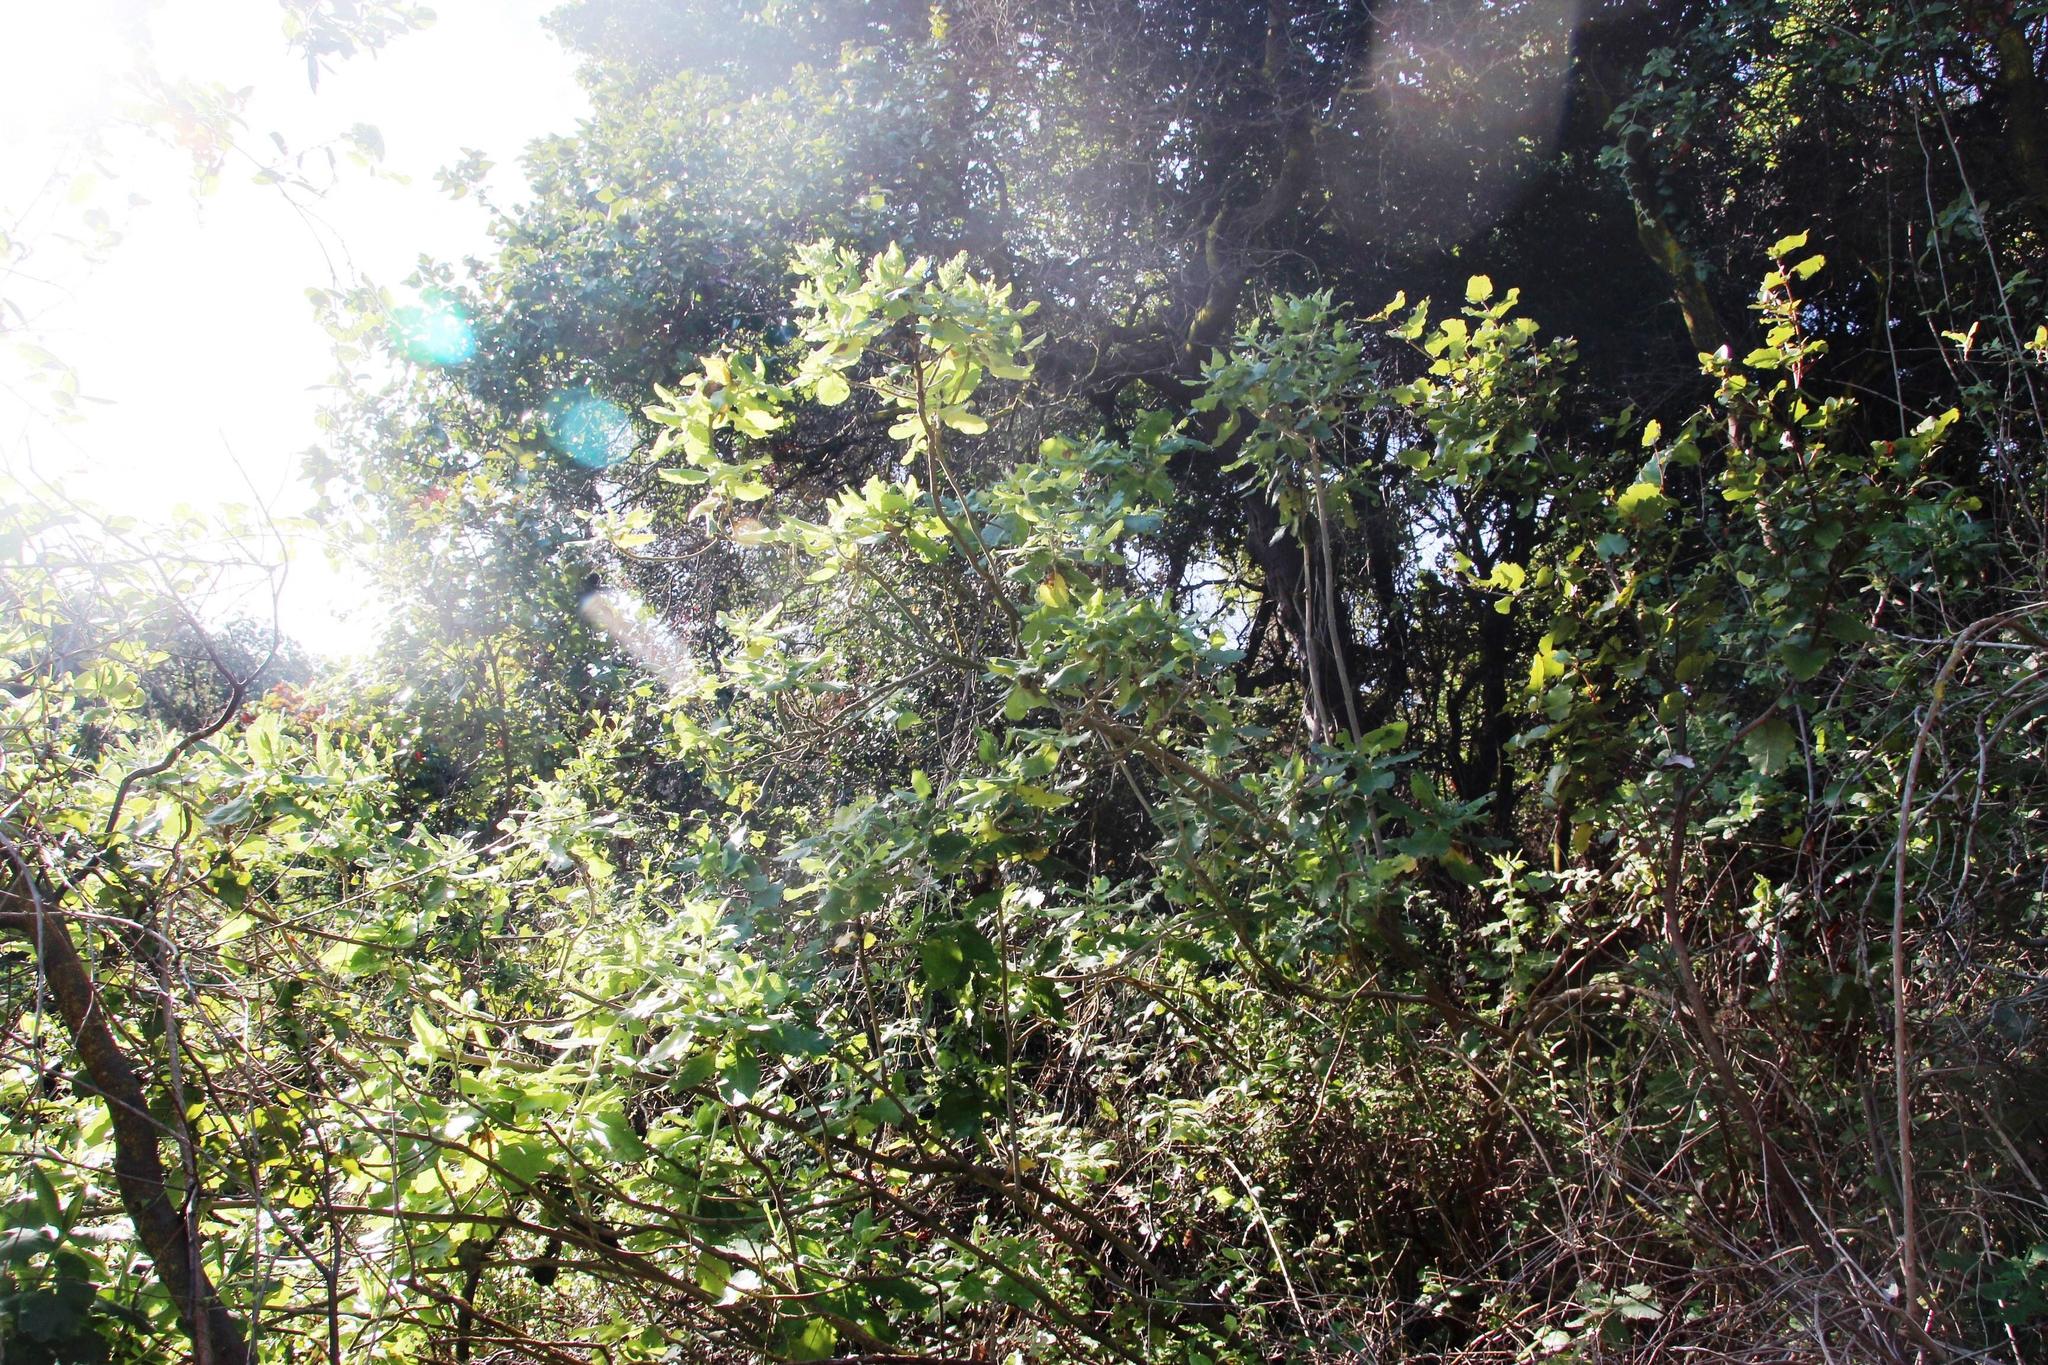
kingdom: Plantae
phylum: Tracheophyta
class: Magnoliopsida
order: Asterales
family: Asteraceae
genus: Acrisione
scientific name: Acrisione denticulata
